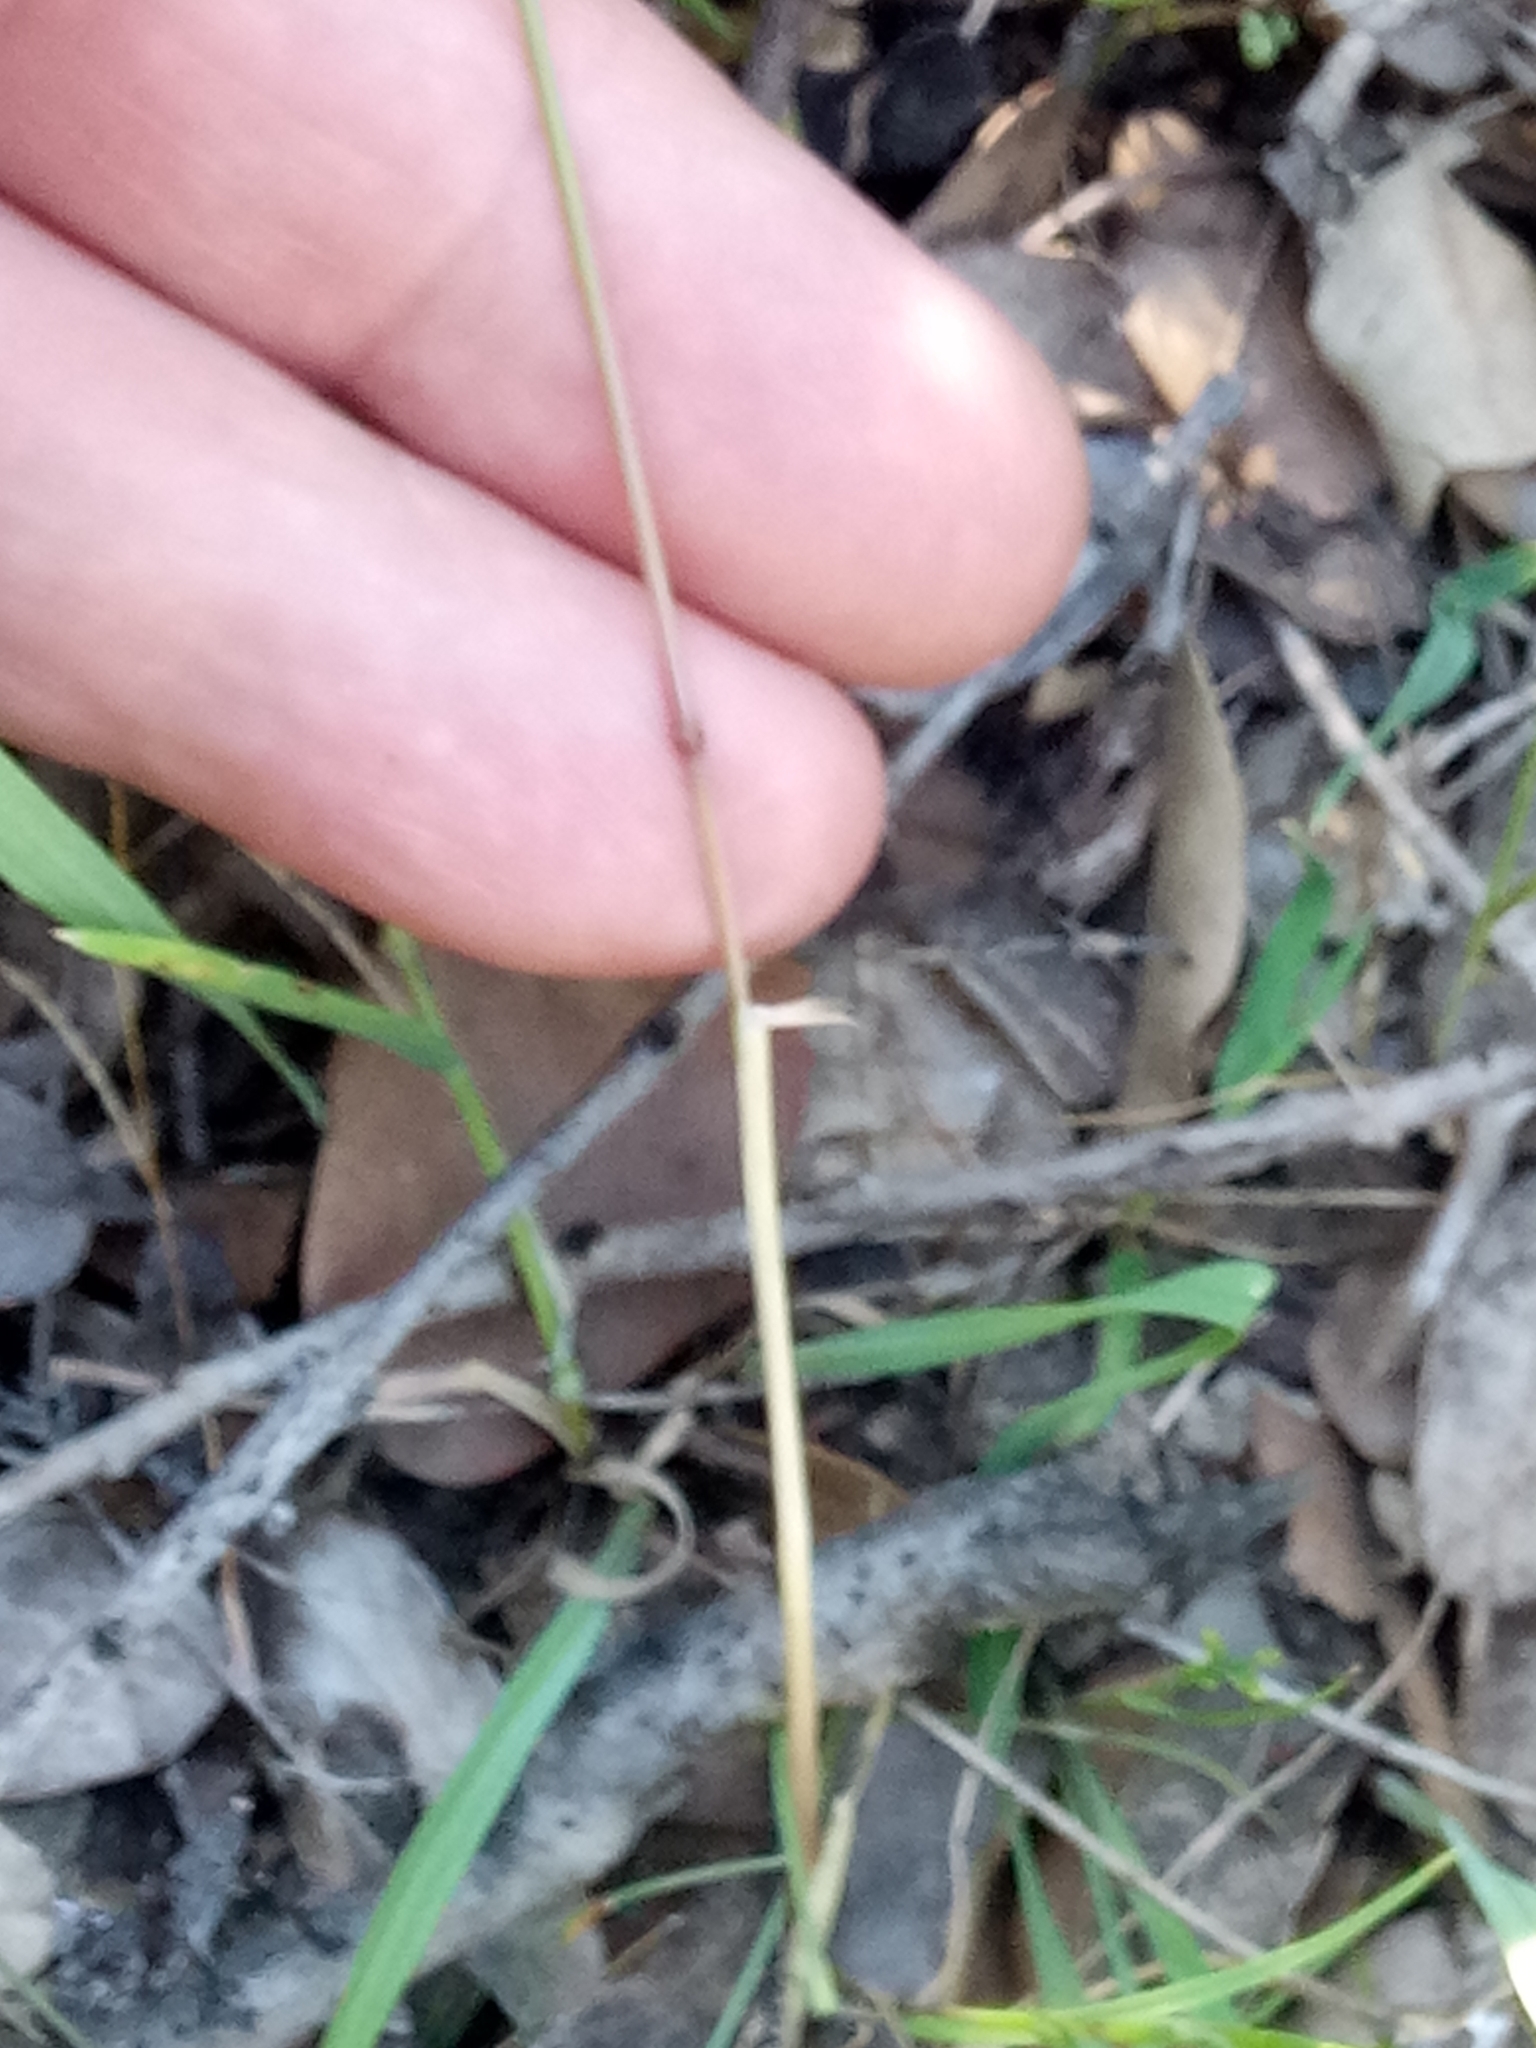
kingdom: Plantae
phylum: Tracheophyta
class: Liliopsida
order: Poales
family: Poaceae
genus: Poa
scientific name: Poa bulbosa
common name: Bulbous bluegrass
